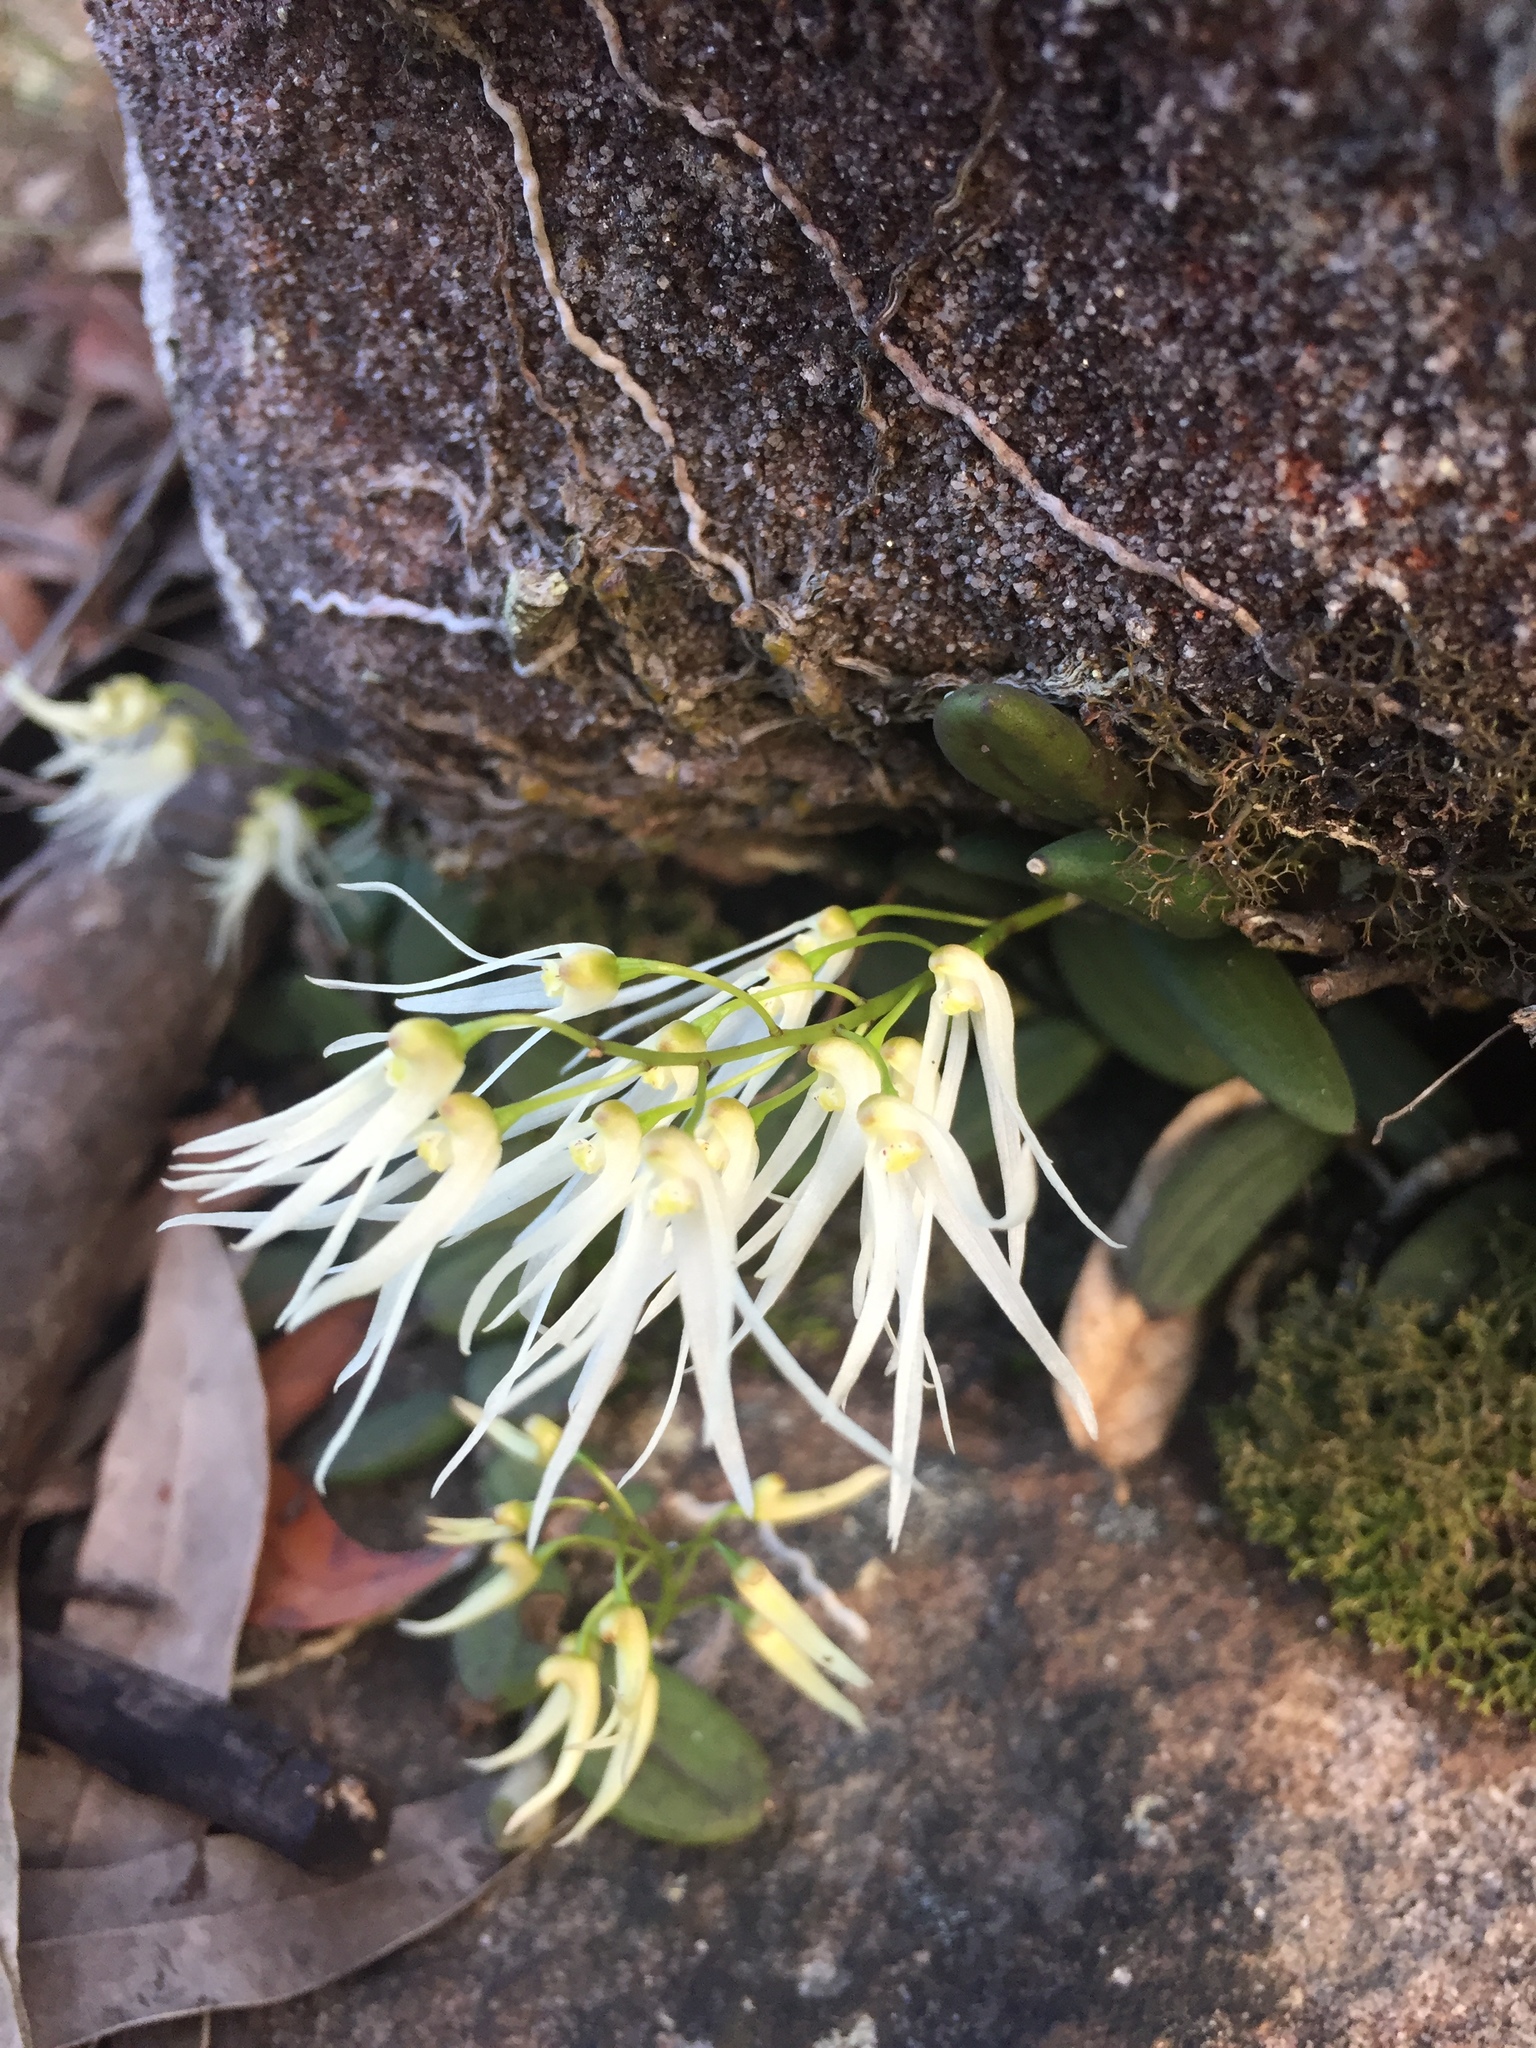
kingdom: Plantae
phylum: Tracheophyta
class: Liliopsida
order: Asparagales
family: Orchidaceae
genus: Dendrobium
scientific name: Dendrobium linguiforme
